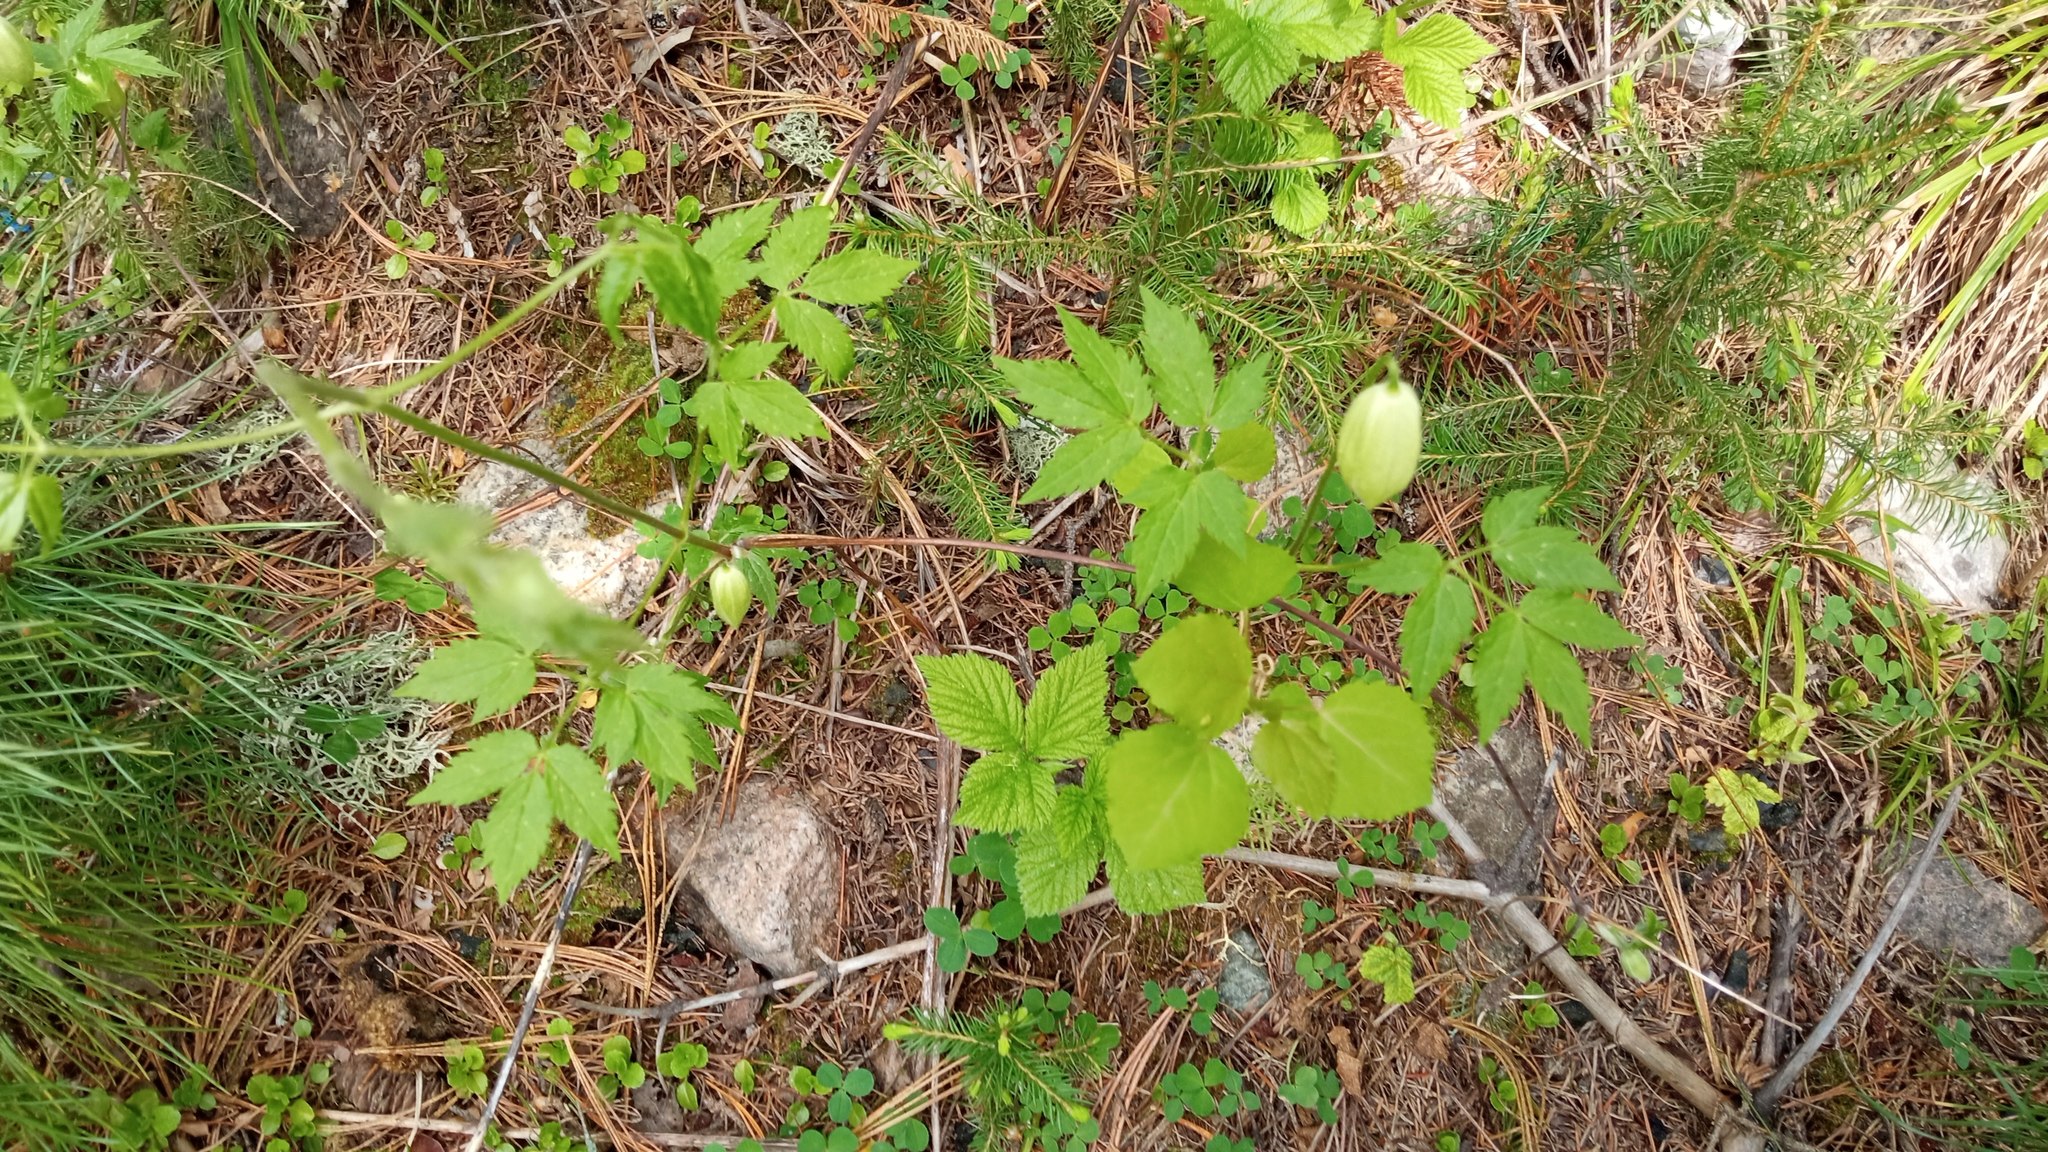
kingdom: Plantae
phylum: Tracheophyta
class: Magnoliopsida
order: Ranunculales
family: Ranunculaceae
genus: Clematis
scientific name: Clematis sibirica
